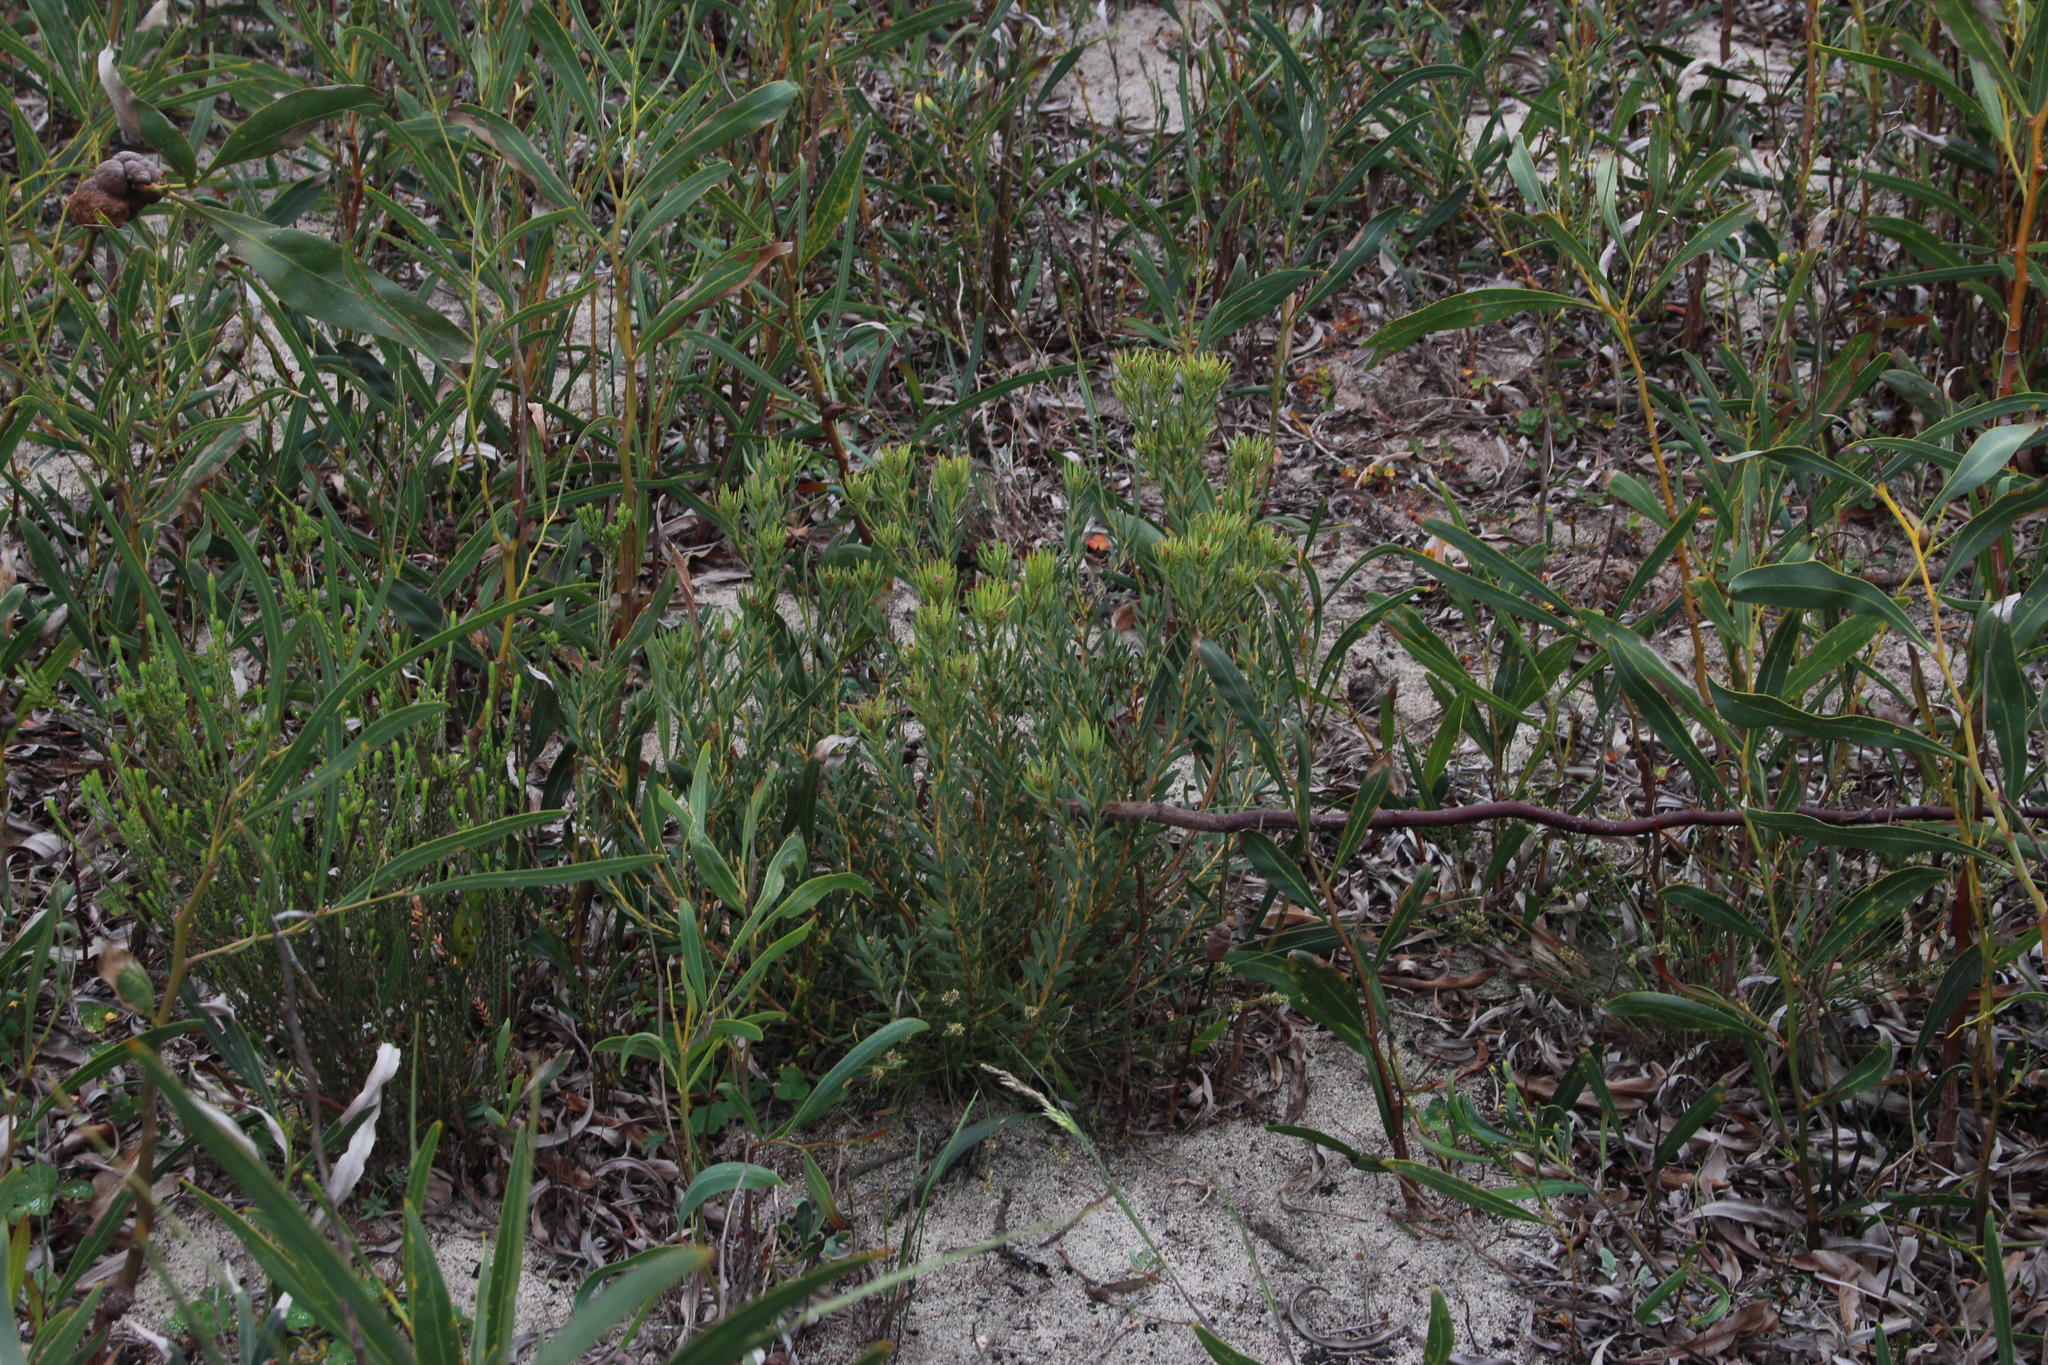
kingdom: Plantae
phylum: Tracheophyta
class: Magnoliopsida
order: Proteales
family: Proteaceae
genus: Leucadendron
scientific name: Leucadendron lanigerum
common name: Shale conebush
